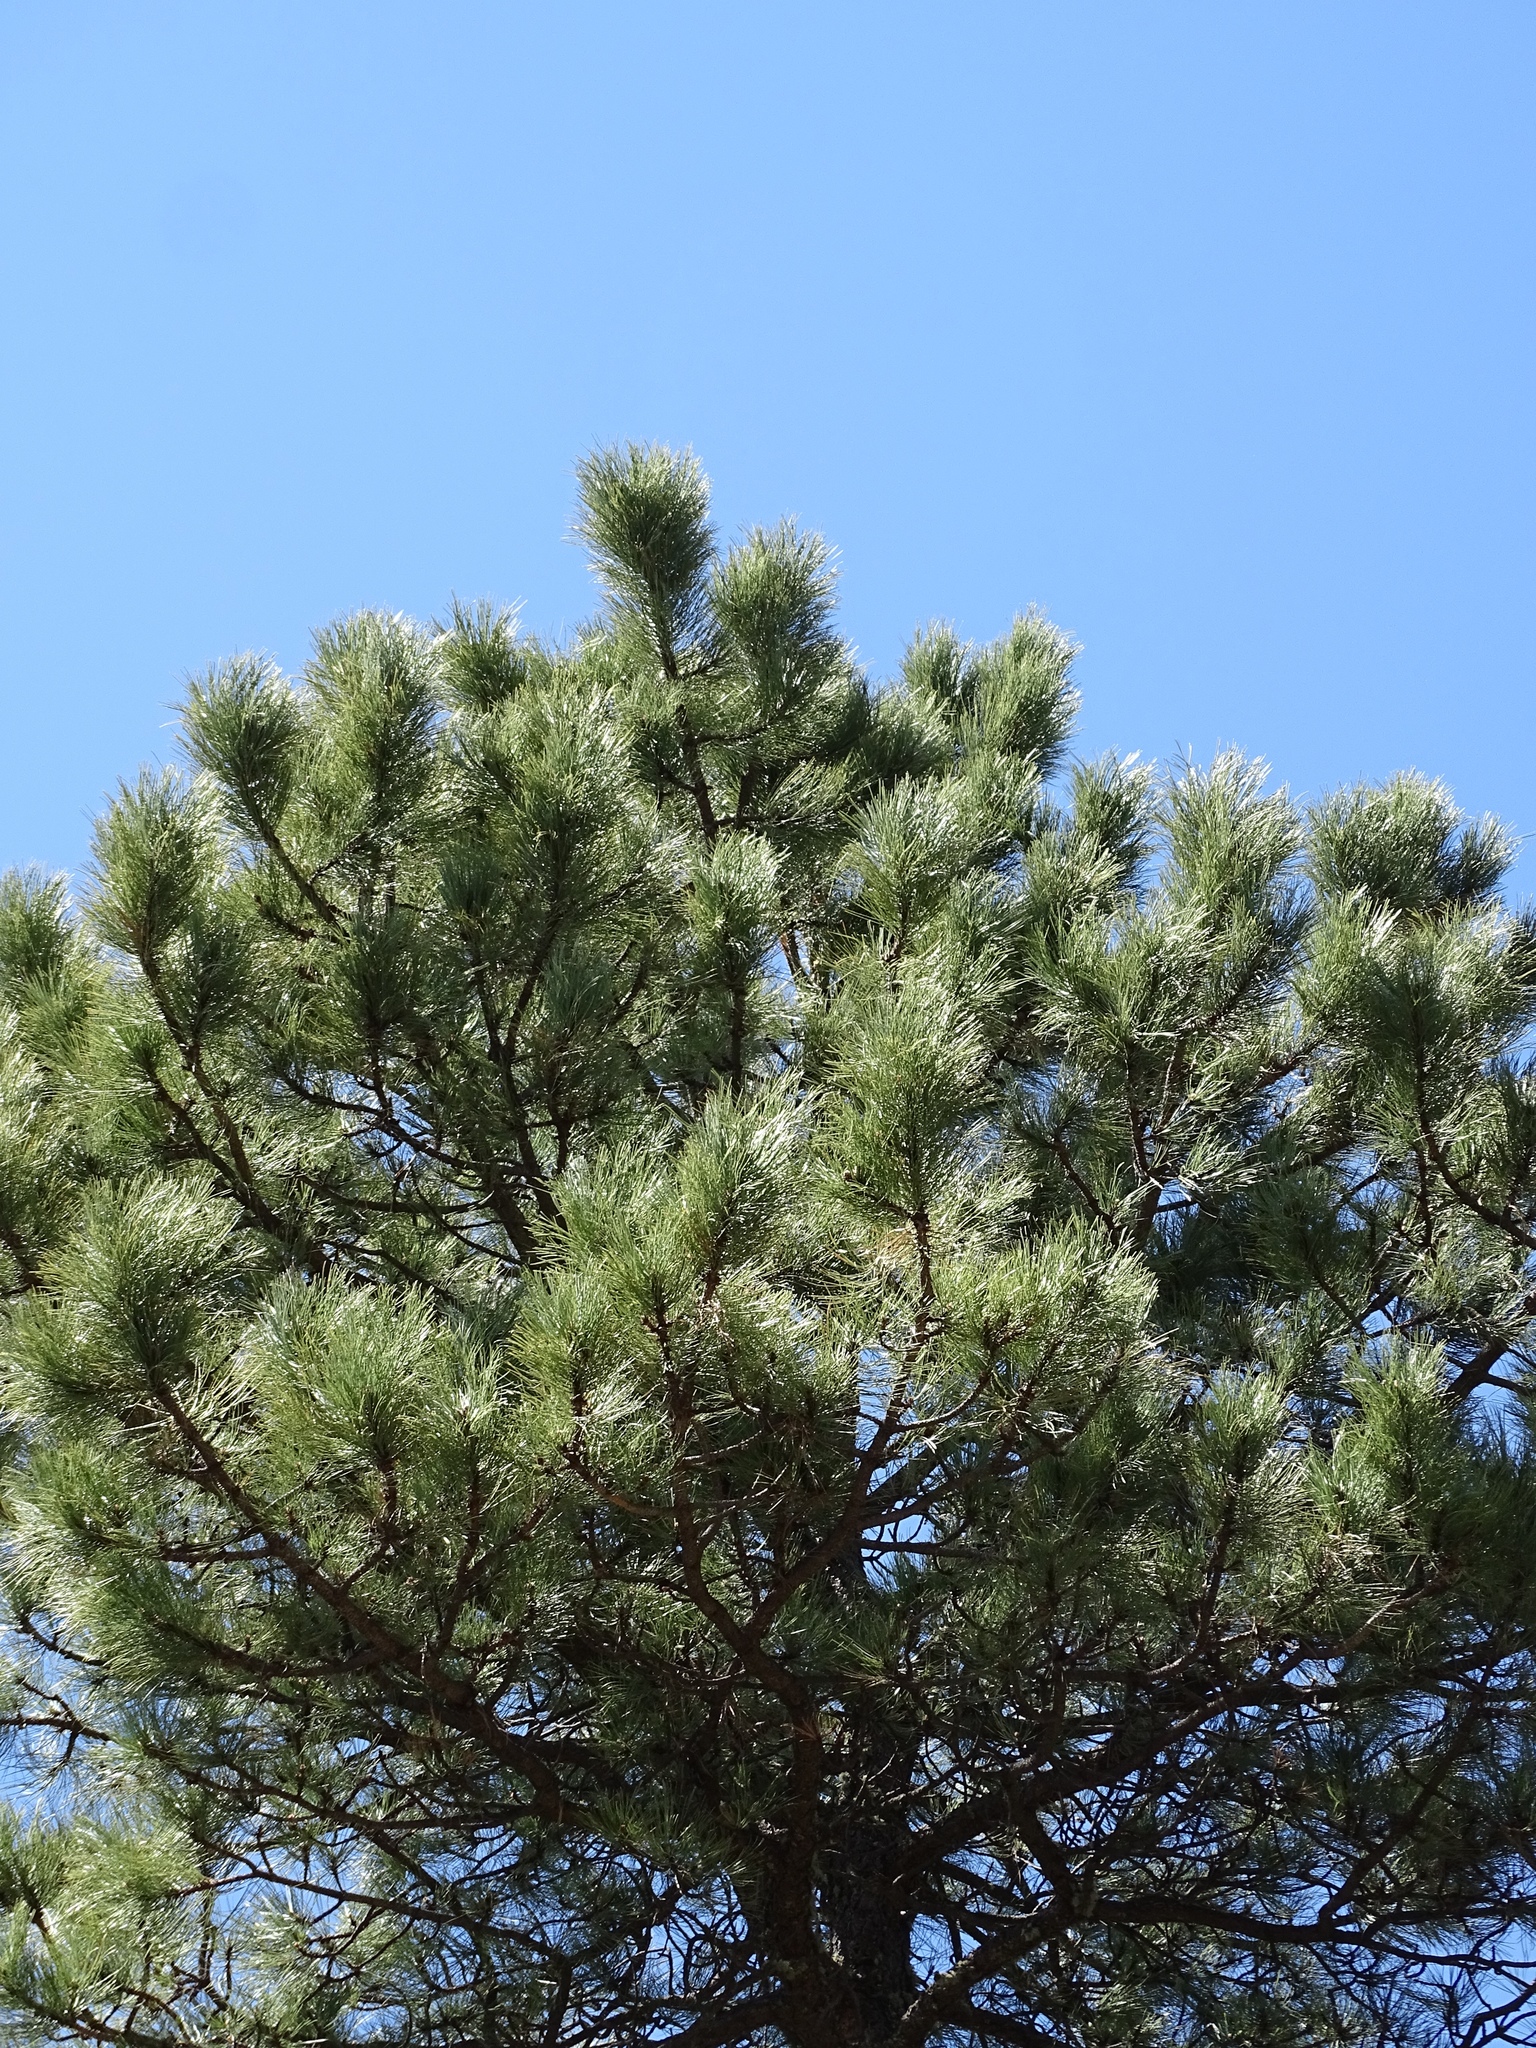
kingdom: Plantae
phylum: Tracheophyta
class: Pinopsida
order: Pinales
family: Pinaceae
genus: Pinus
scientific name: Pinus ponderosa
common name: Western yellow-pine
